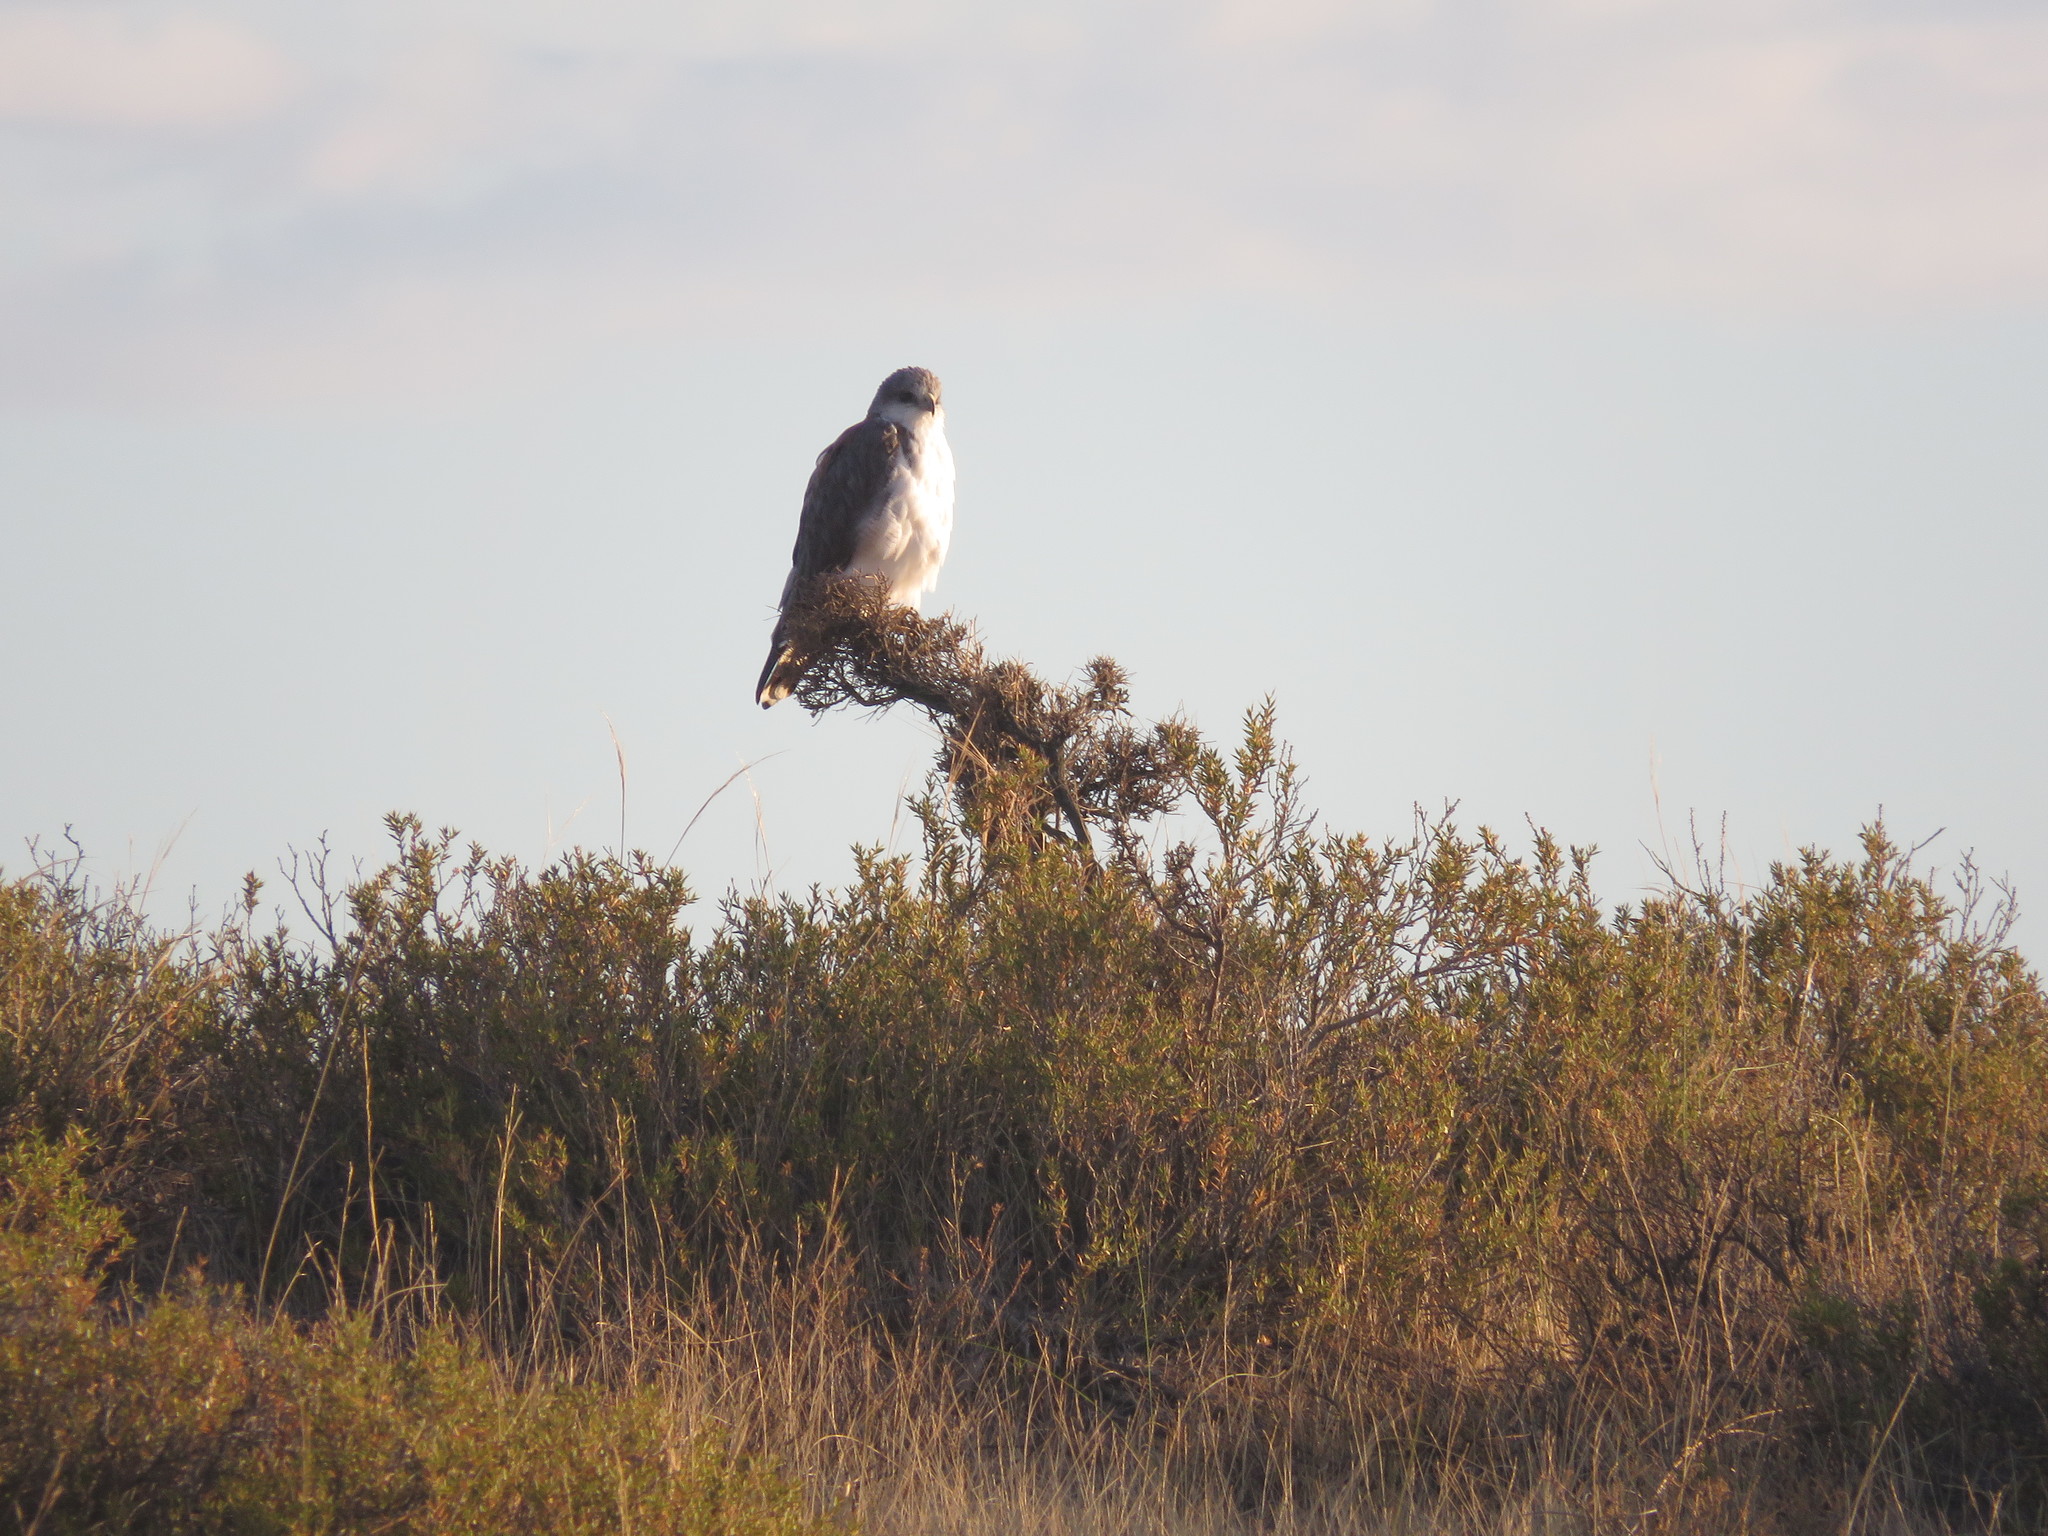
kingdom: Animalia
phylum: Chordata
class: Aves
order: Accipitriformes
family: Accipitridae
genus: Buteo
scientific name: Buteo polyosoma
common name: Variable hawk
